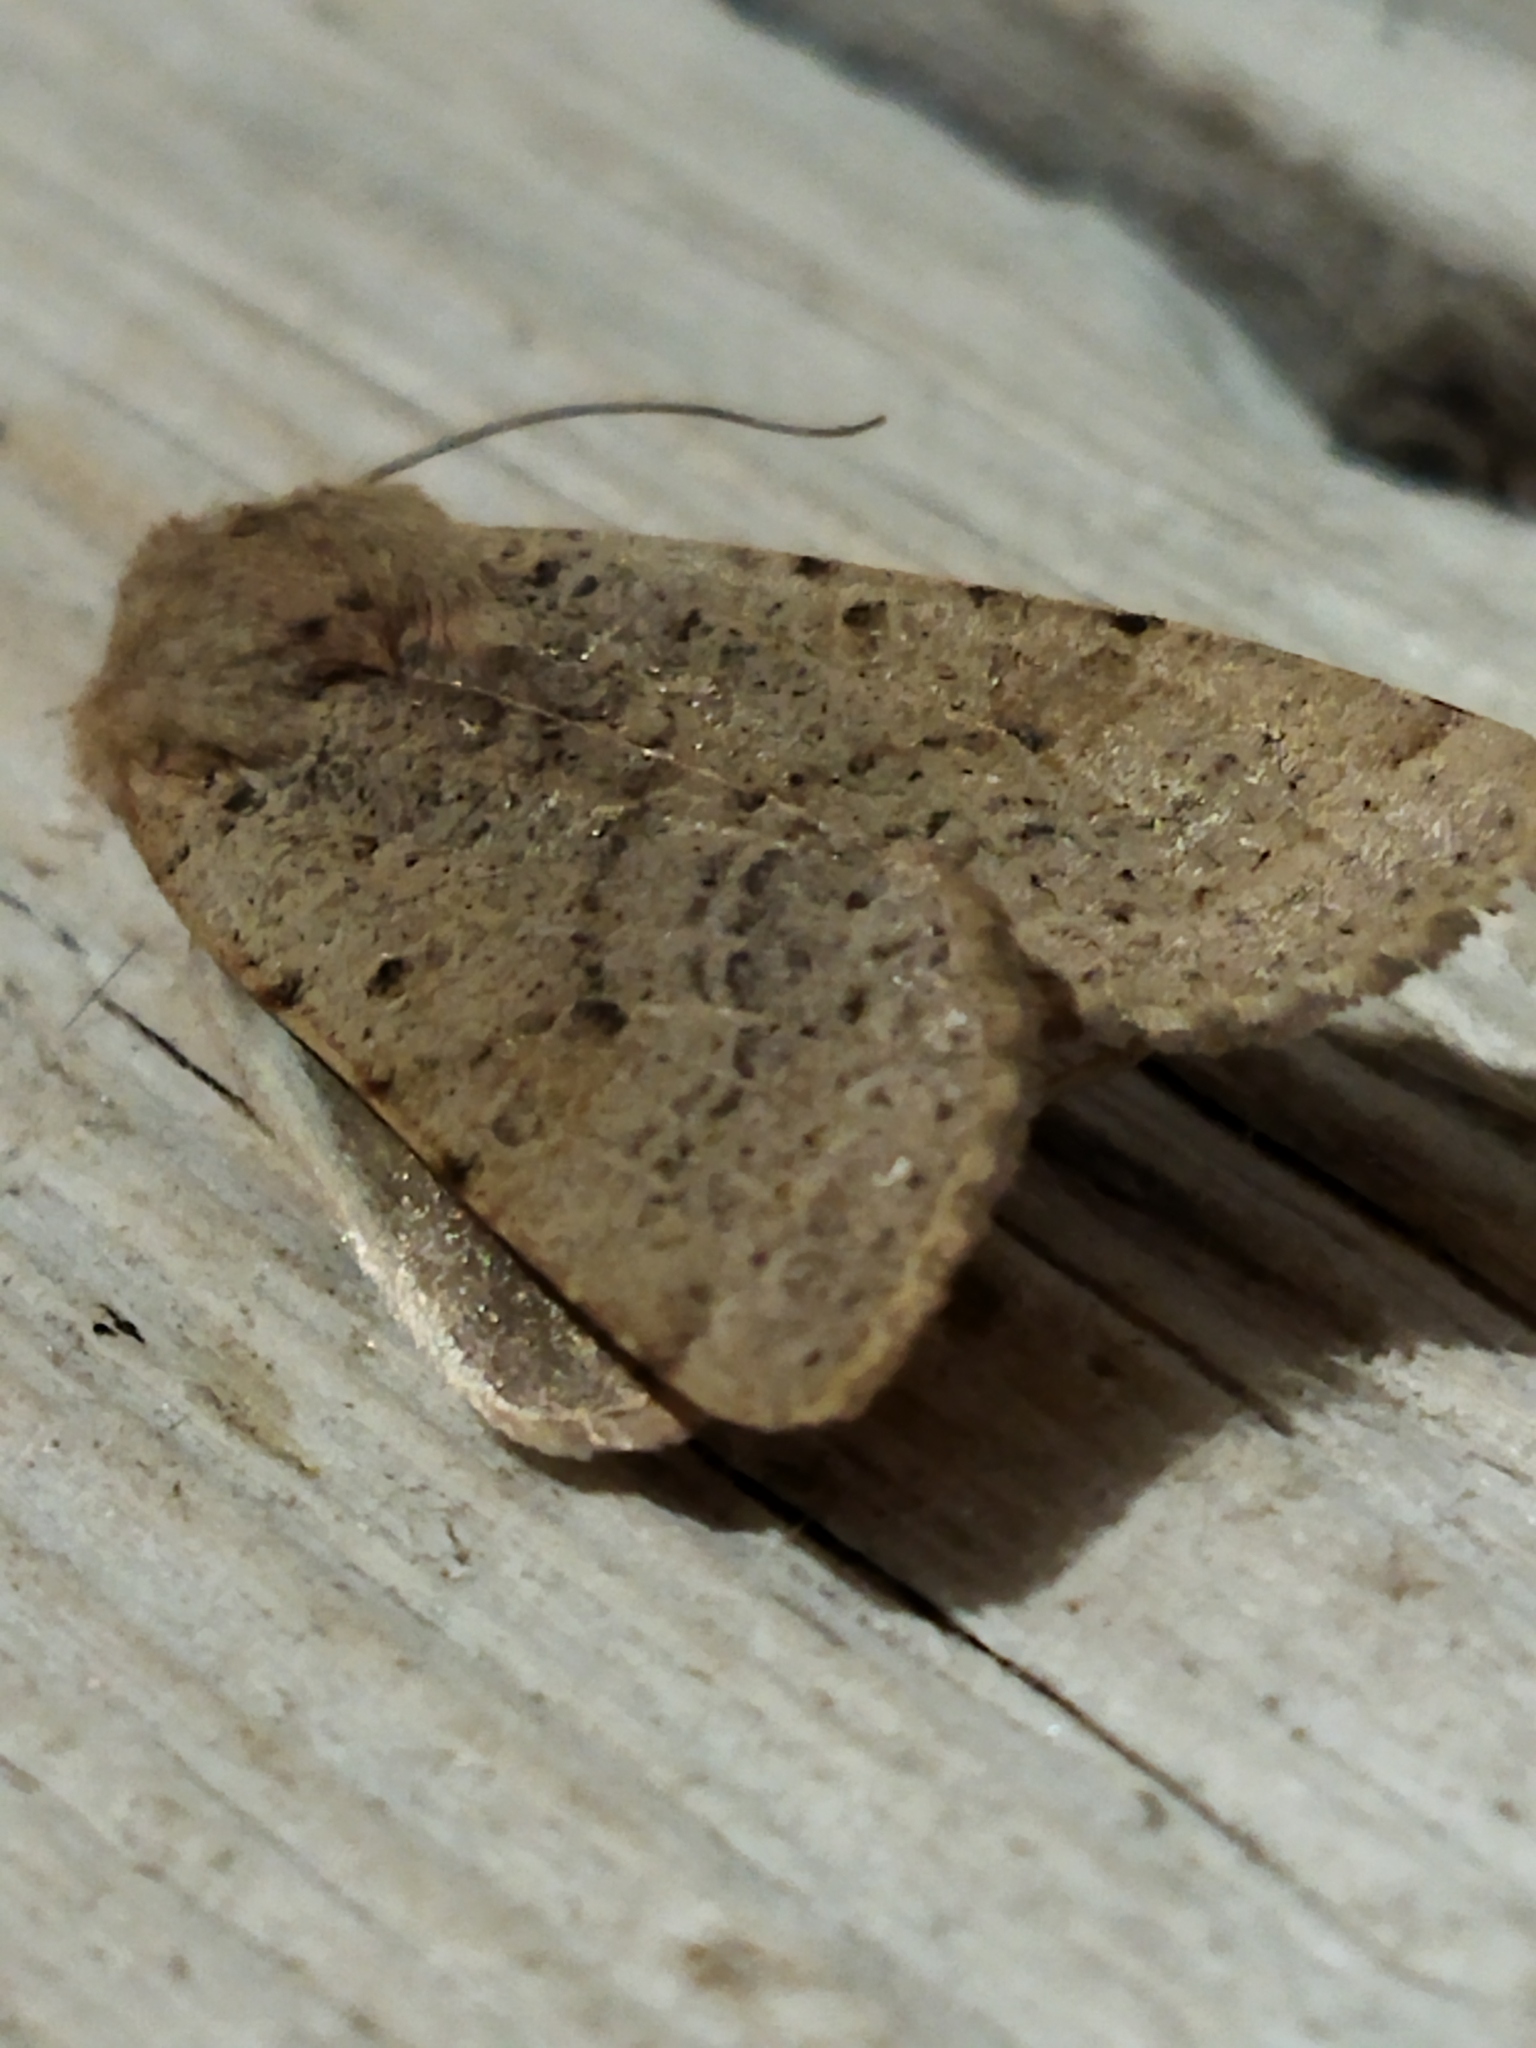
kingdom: Animalia
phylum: Arthropoda
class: Insecta
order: Lepidoptera
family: Noctuidae
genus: Agrochola
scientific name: Agrochola lychnidis
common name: Beaded chestnut
